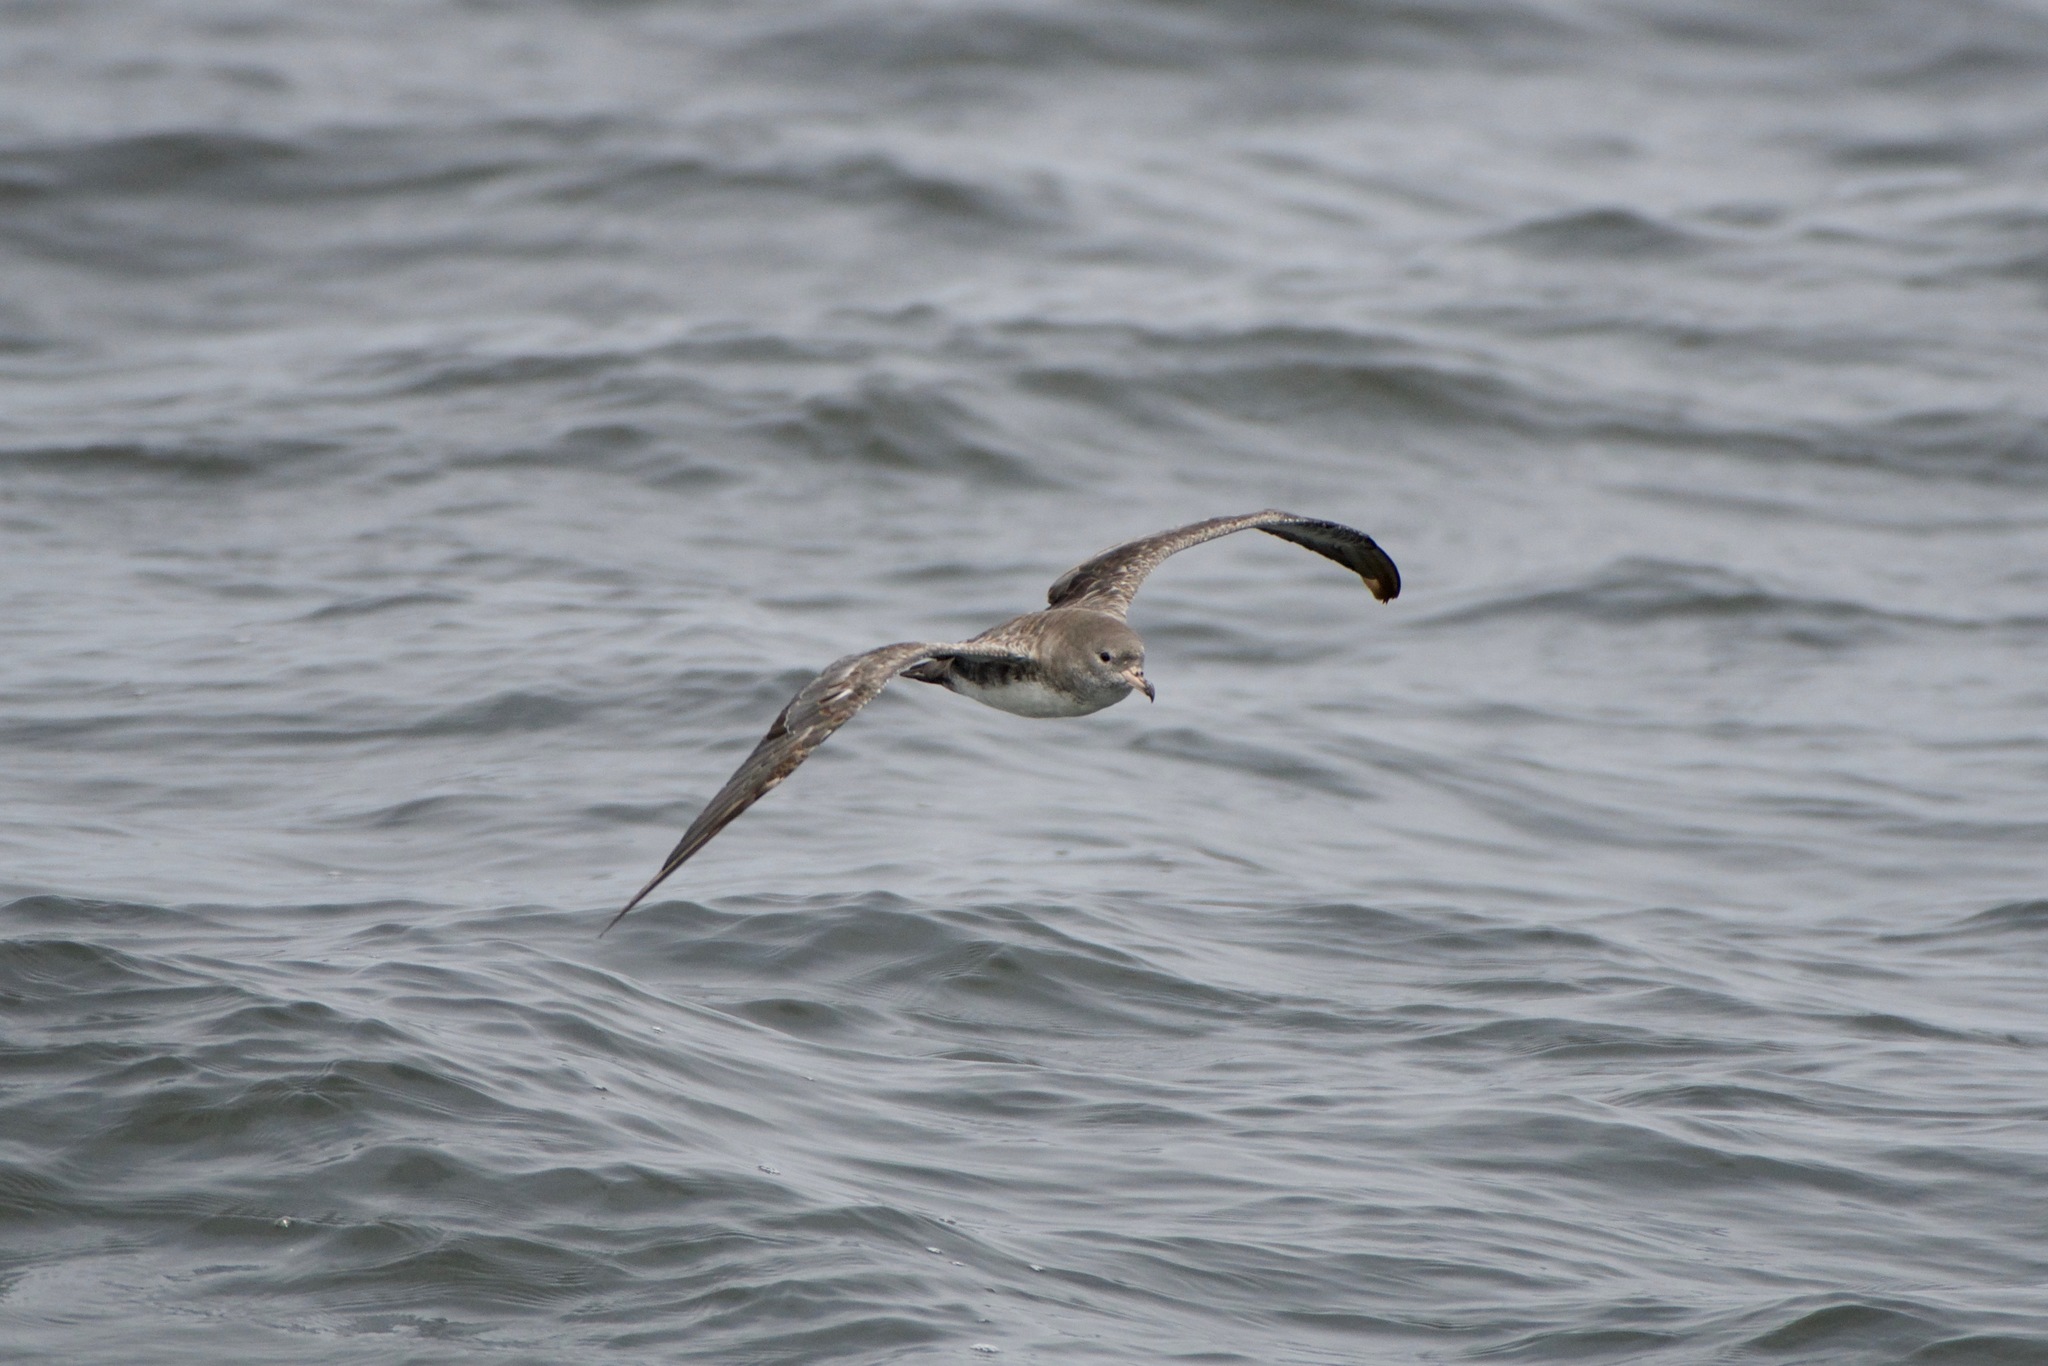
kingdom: Animalia
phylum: Chordata
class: Aves
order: Procellariiformes
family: Procellariidae
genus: Puffinus
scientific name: Puffinus creatopus
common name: Pink-footed shearwater
